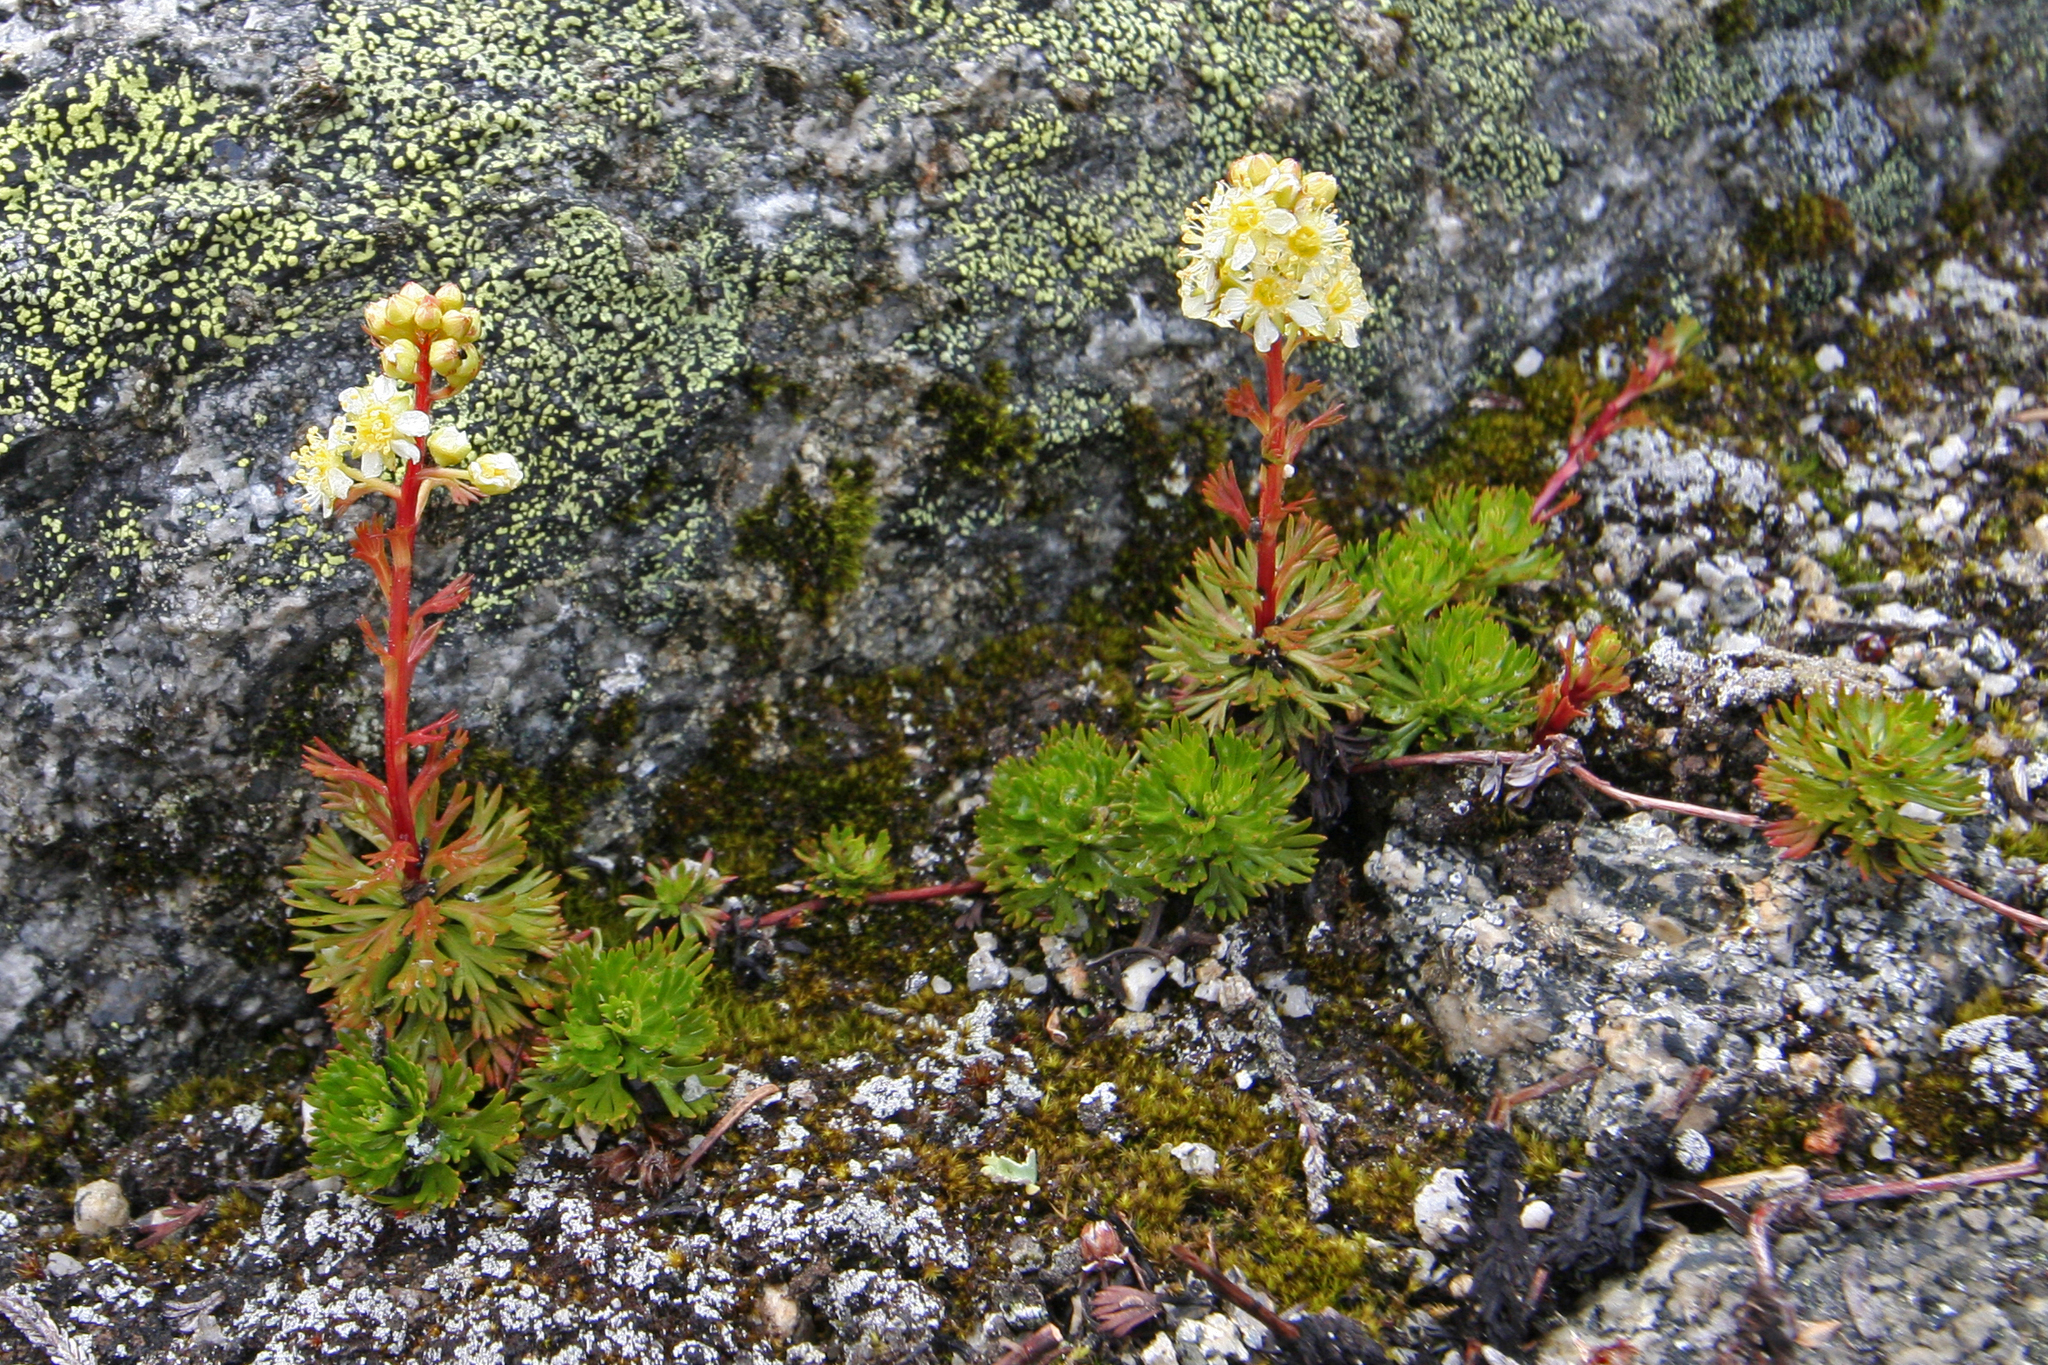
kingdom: Plantae
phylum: Tracheophyta
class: Magnoliopsida
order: Rosales
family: Rosaceae
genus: Luetkea
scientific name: Luetkea pectinata
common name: Partridgefoot
